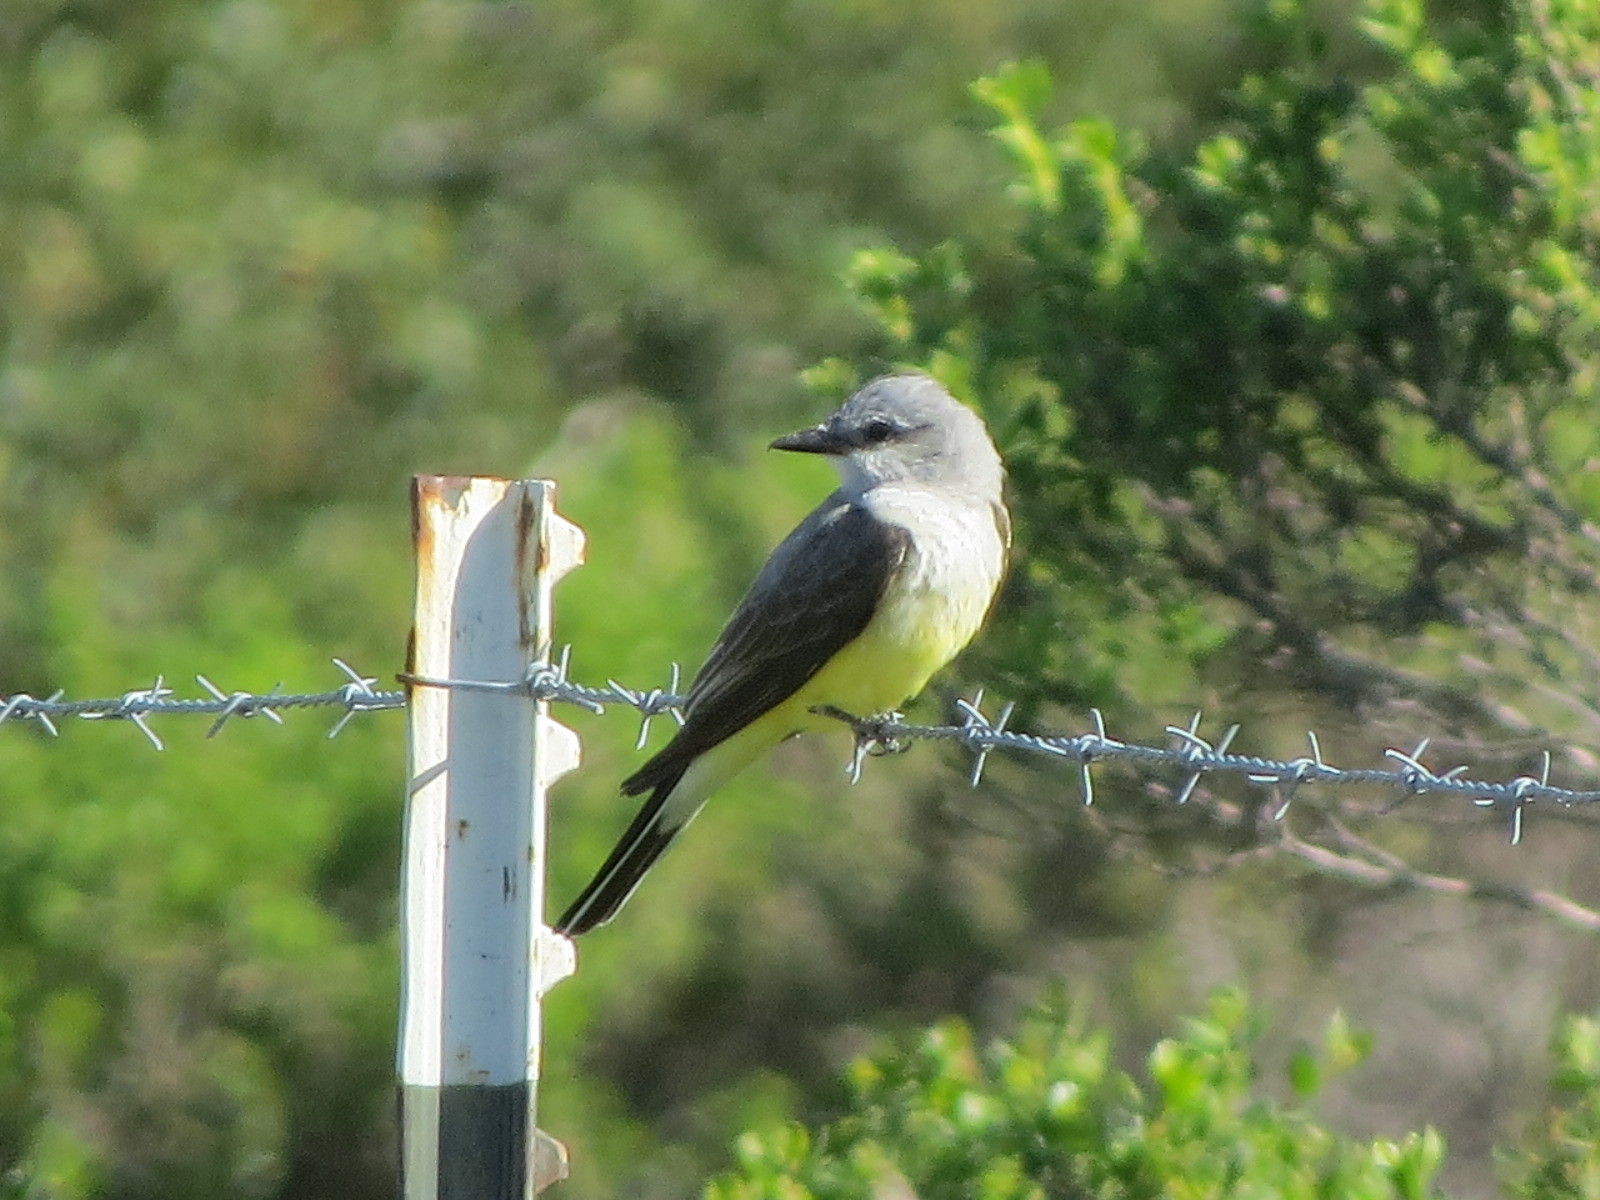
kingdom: Animalia
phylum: Chordata
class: Aves
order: Passeriformes
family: Tyrannidae
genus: Tyrannus
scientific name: Tyrannus verticalis
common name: Western kingbird
